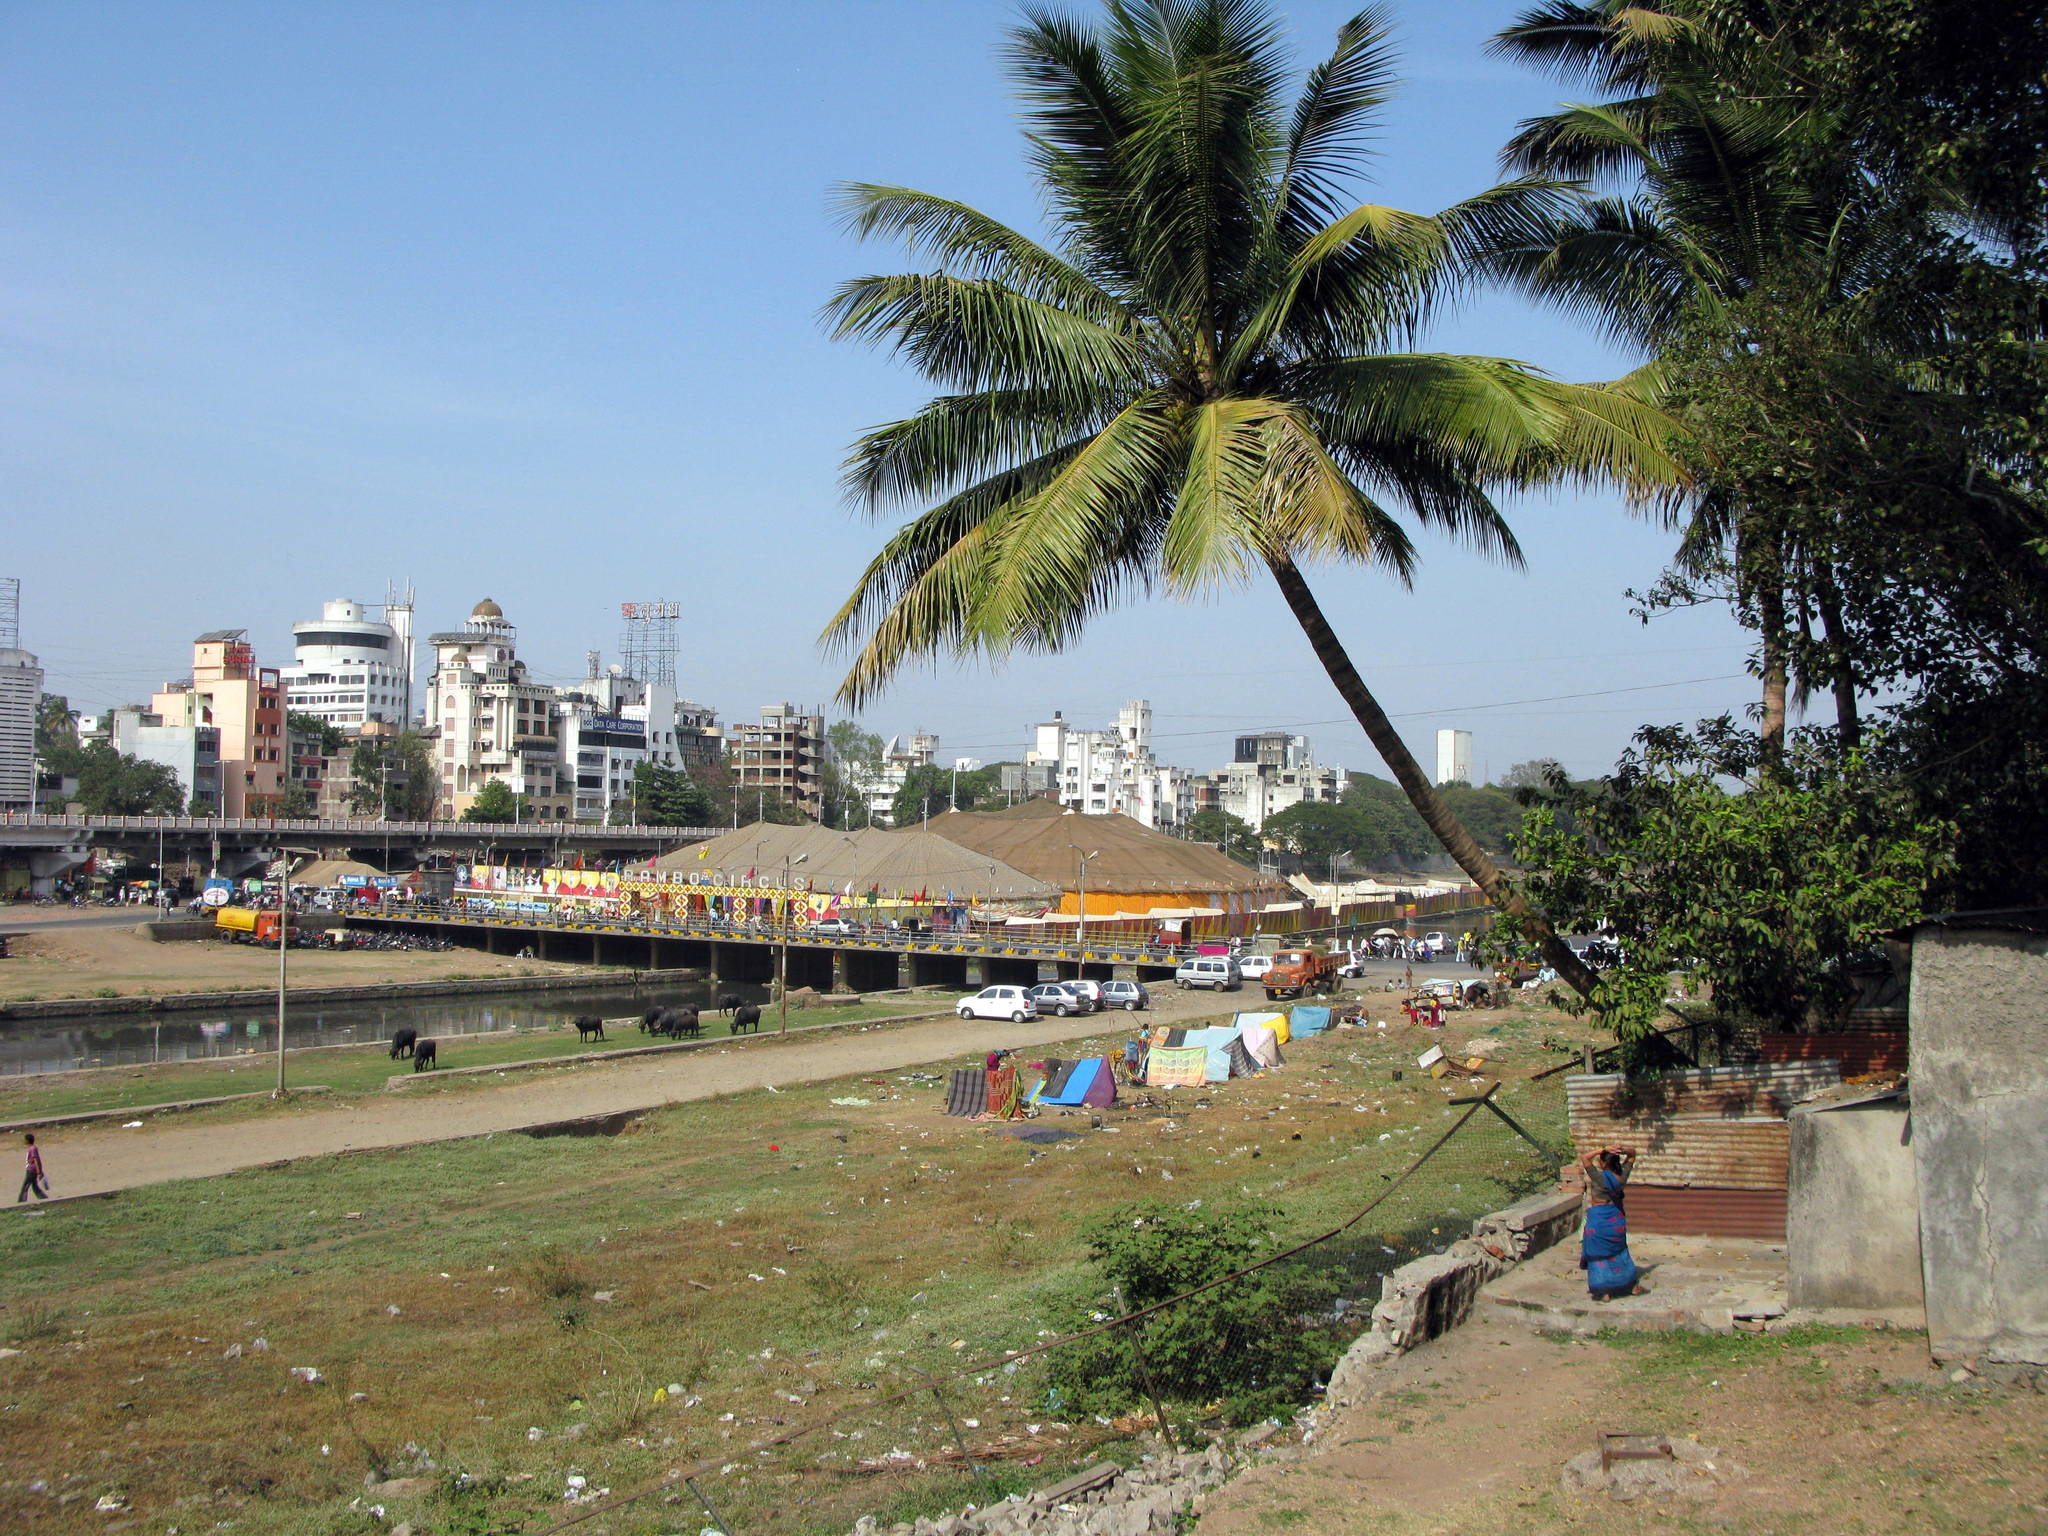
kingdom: Plantae
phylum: Tracheophyta
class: Liliopsida
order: Arecales
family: Arecaceae
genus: Cocos
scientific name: Cocos nucifera
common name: Coconut palm
